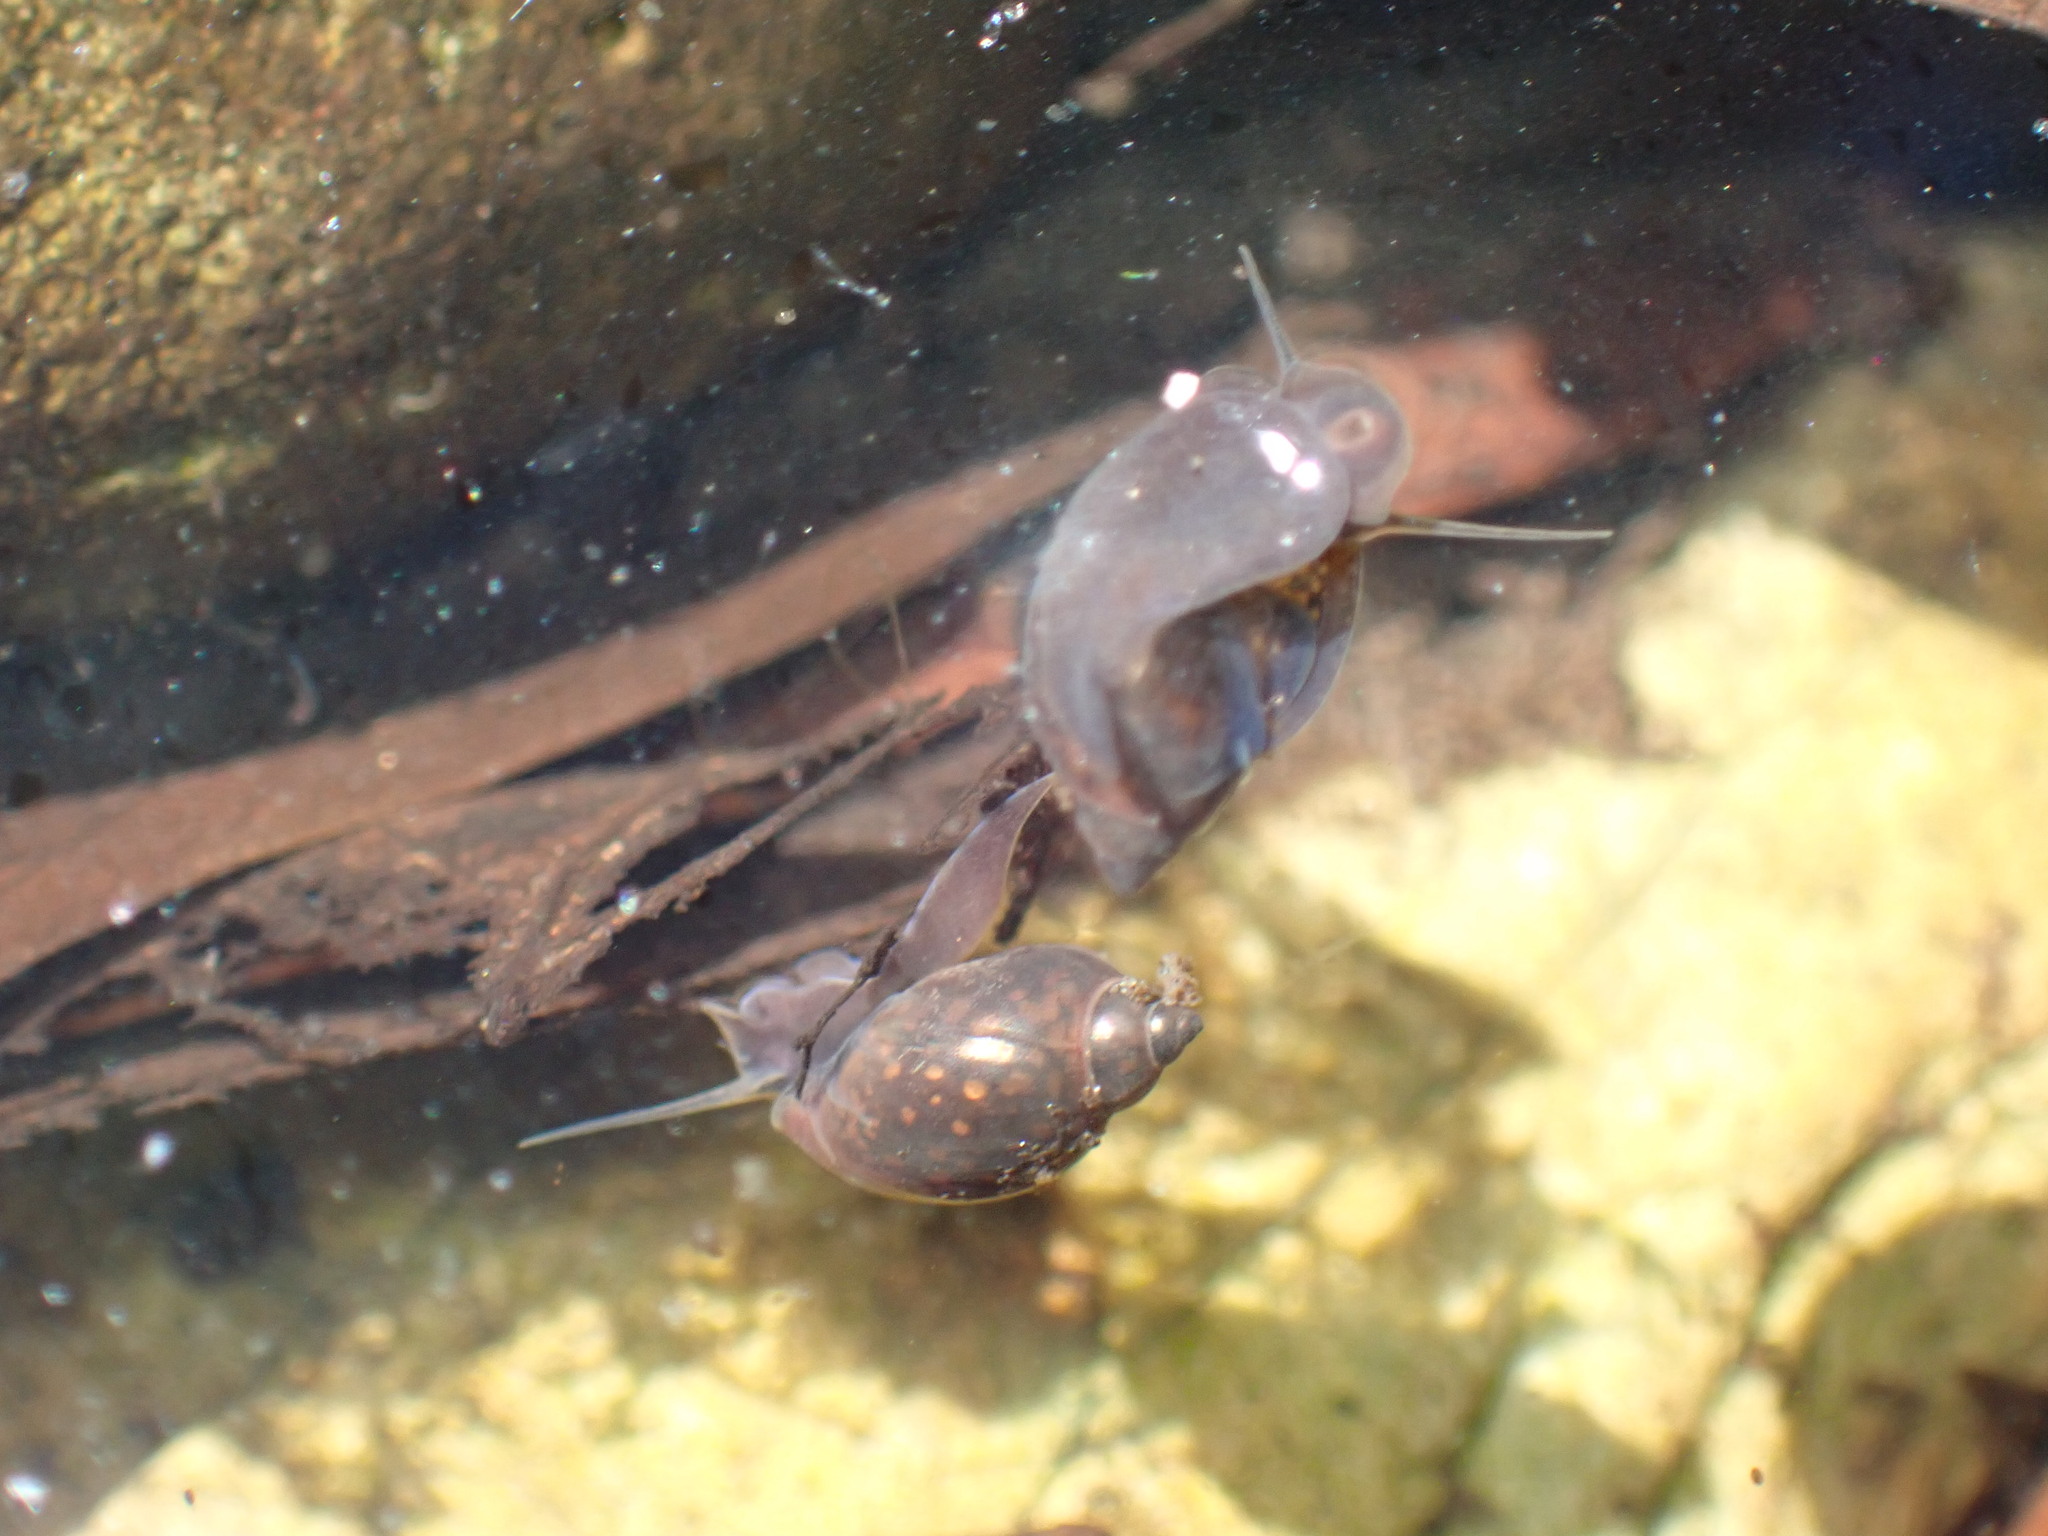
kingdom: Animalia
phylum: Mollusca
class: Gastropoda
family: Physidae
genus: Physella
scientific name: Physella acuta
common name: European physa
